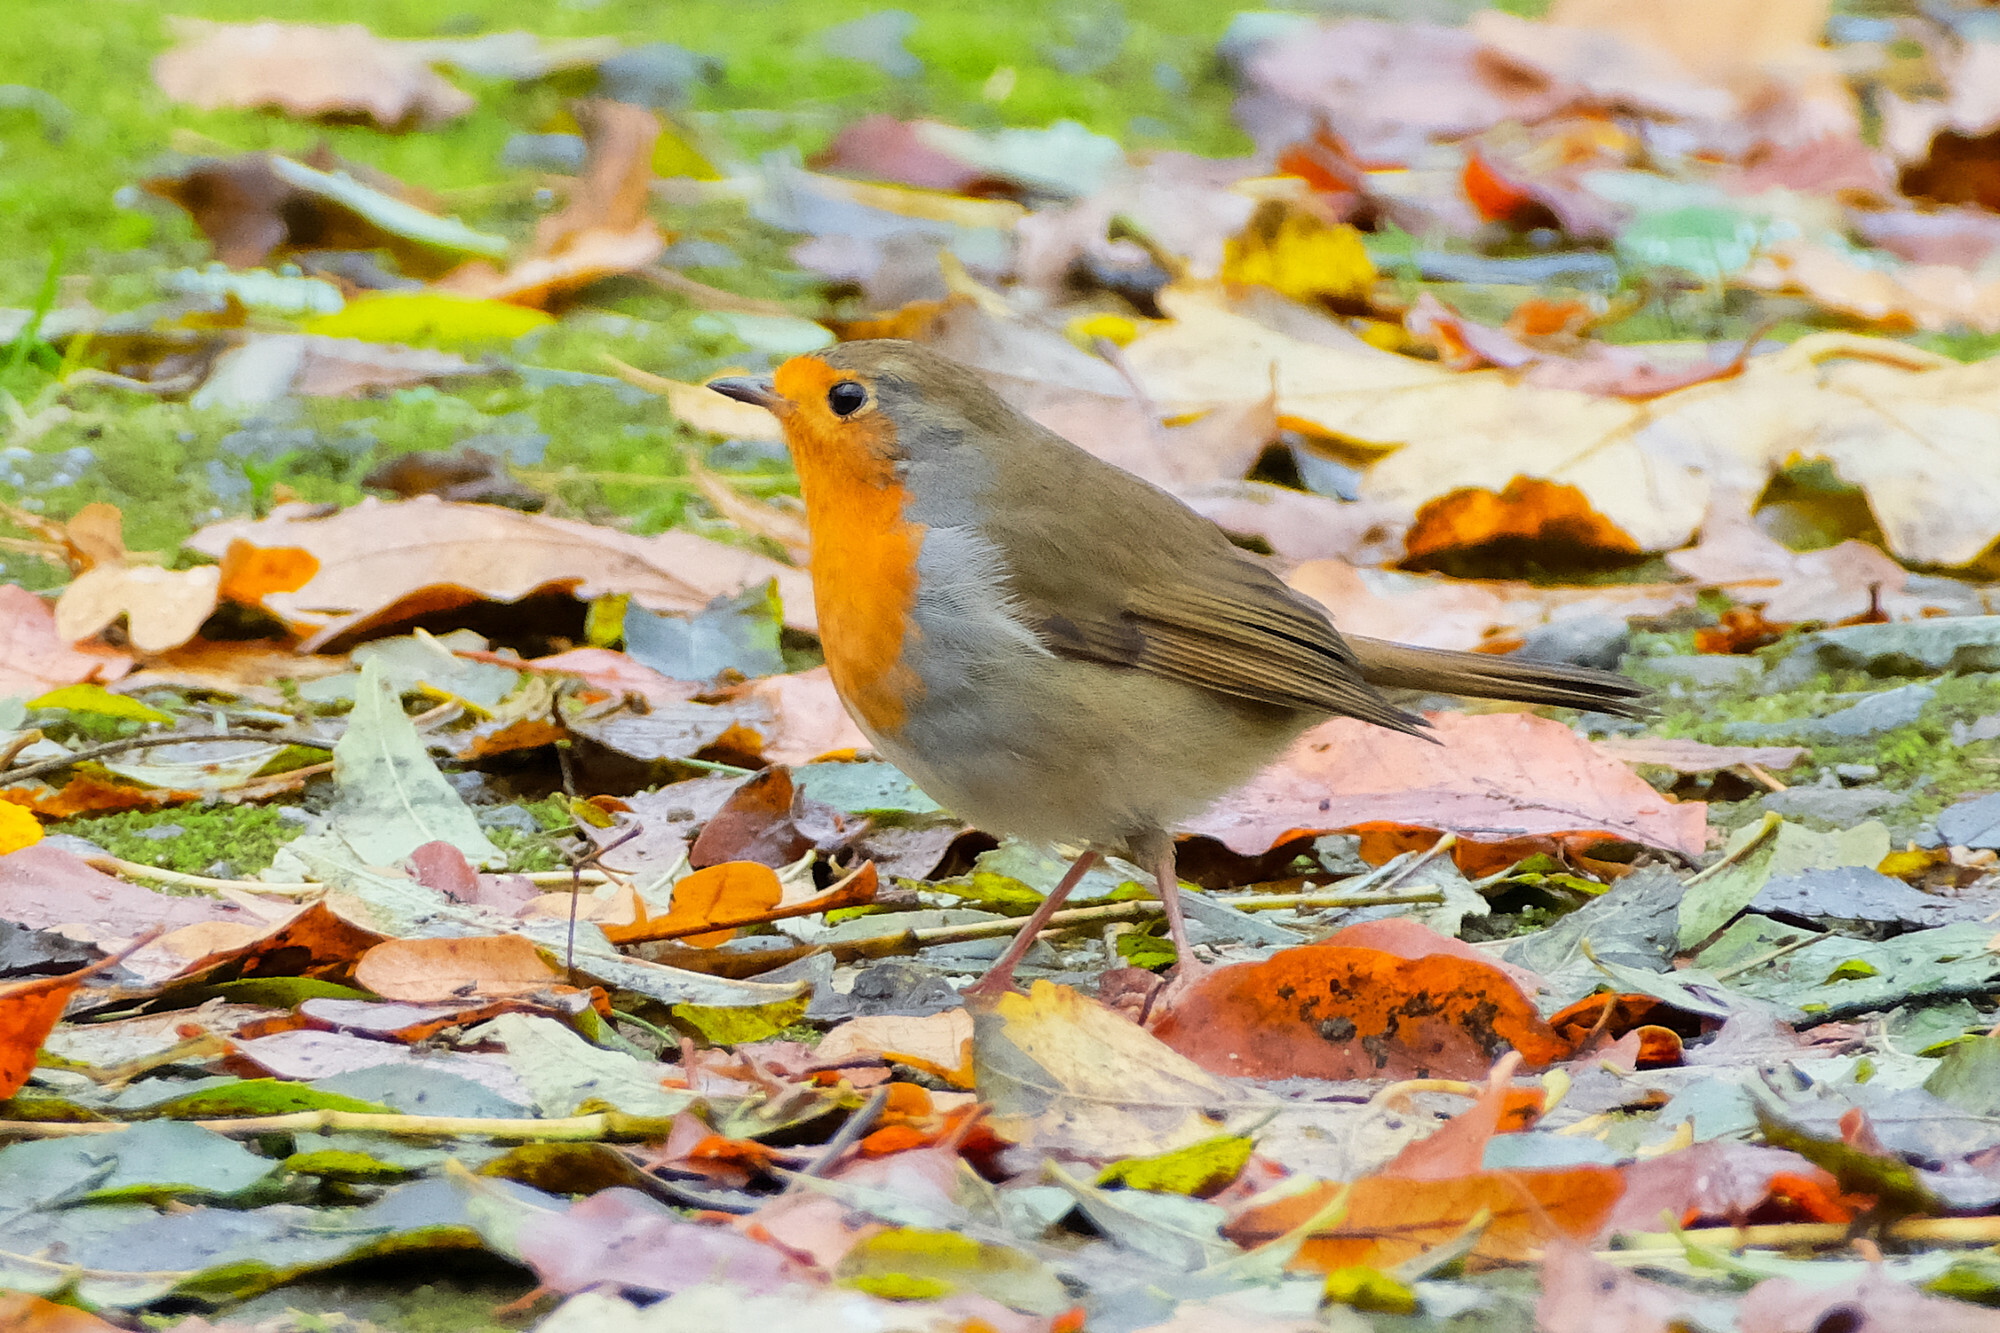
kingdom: Animalia
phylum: Chordata
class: Aves
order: Passeriformes
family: Muscicapidae
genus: Erithacus
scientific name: Erithacus rubecula
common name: European robin
